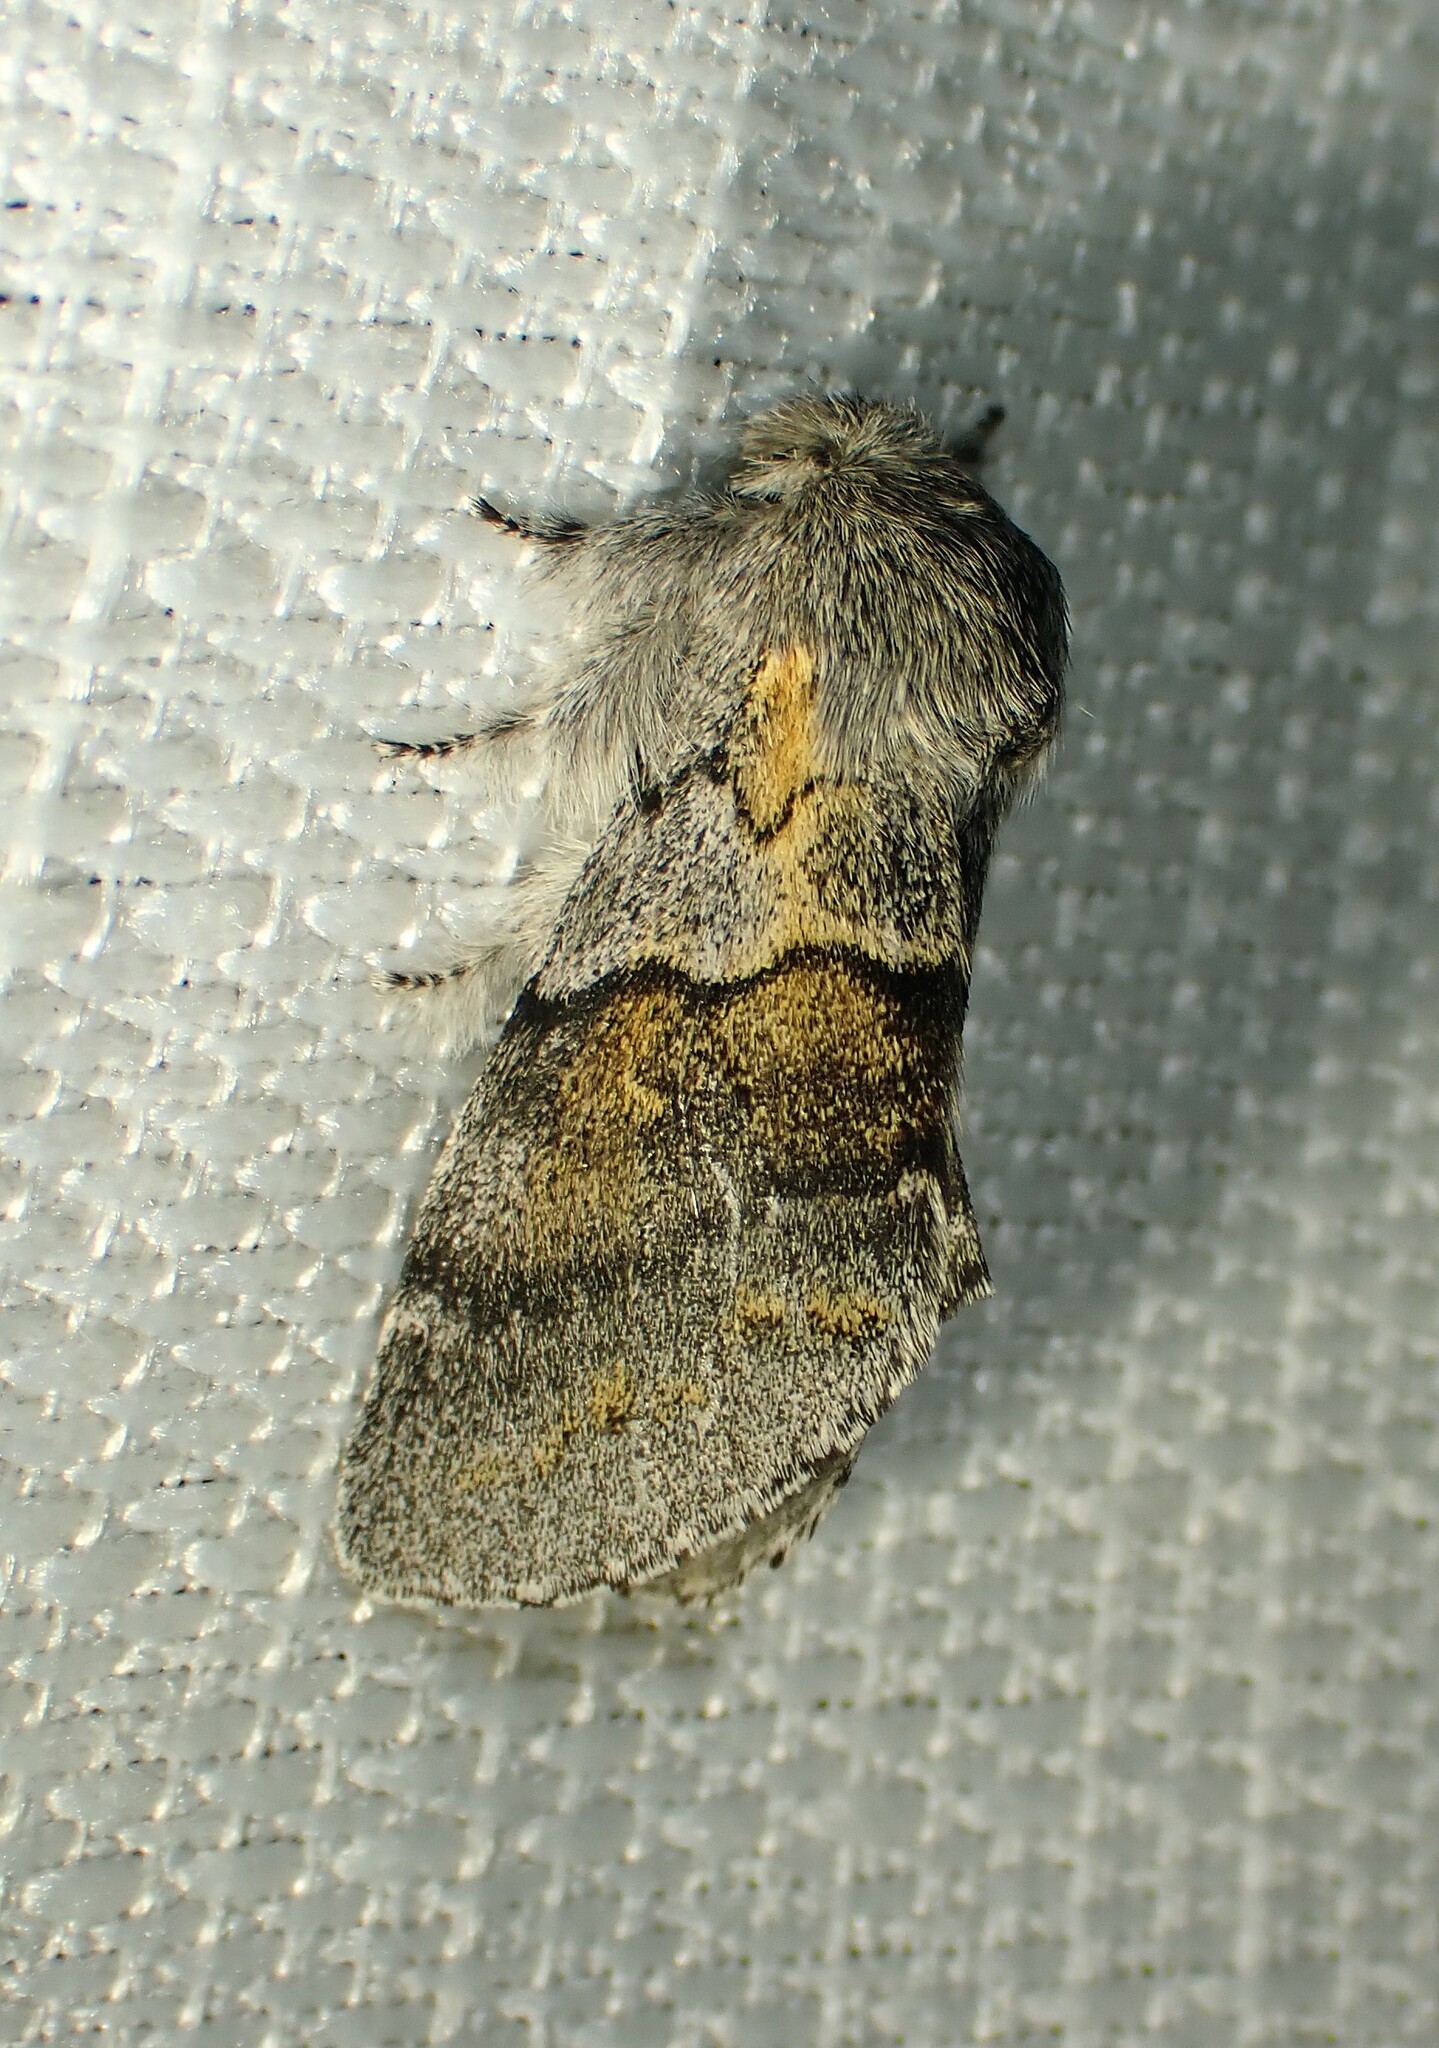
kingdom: Animalia
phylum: Arthropoda
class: Insecta
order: Lepidoptera
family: Notodontidae
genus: Gluphisia
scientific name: Gluphisia lintneri
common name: Lintner's gluphisia moth
